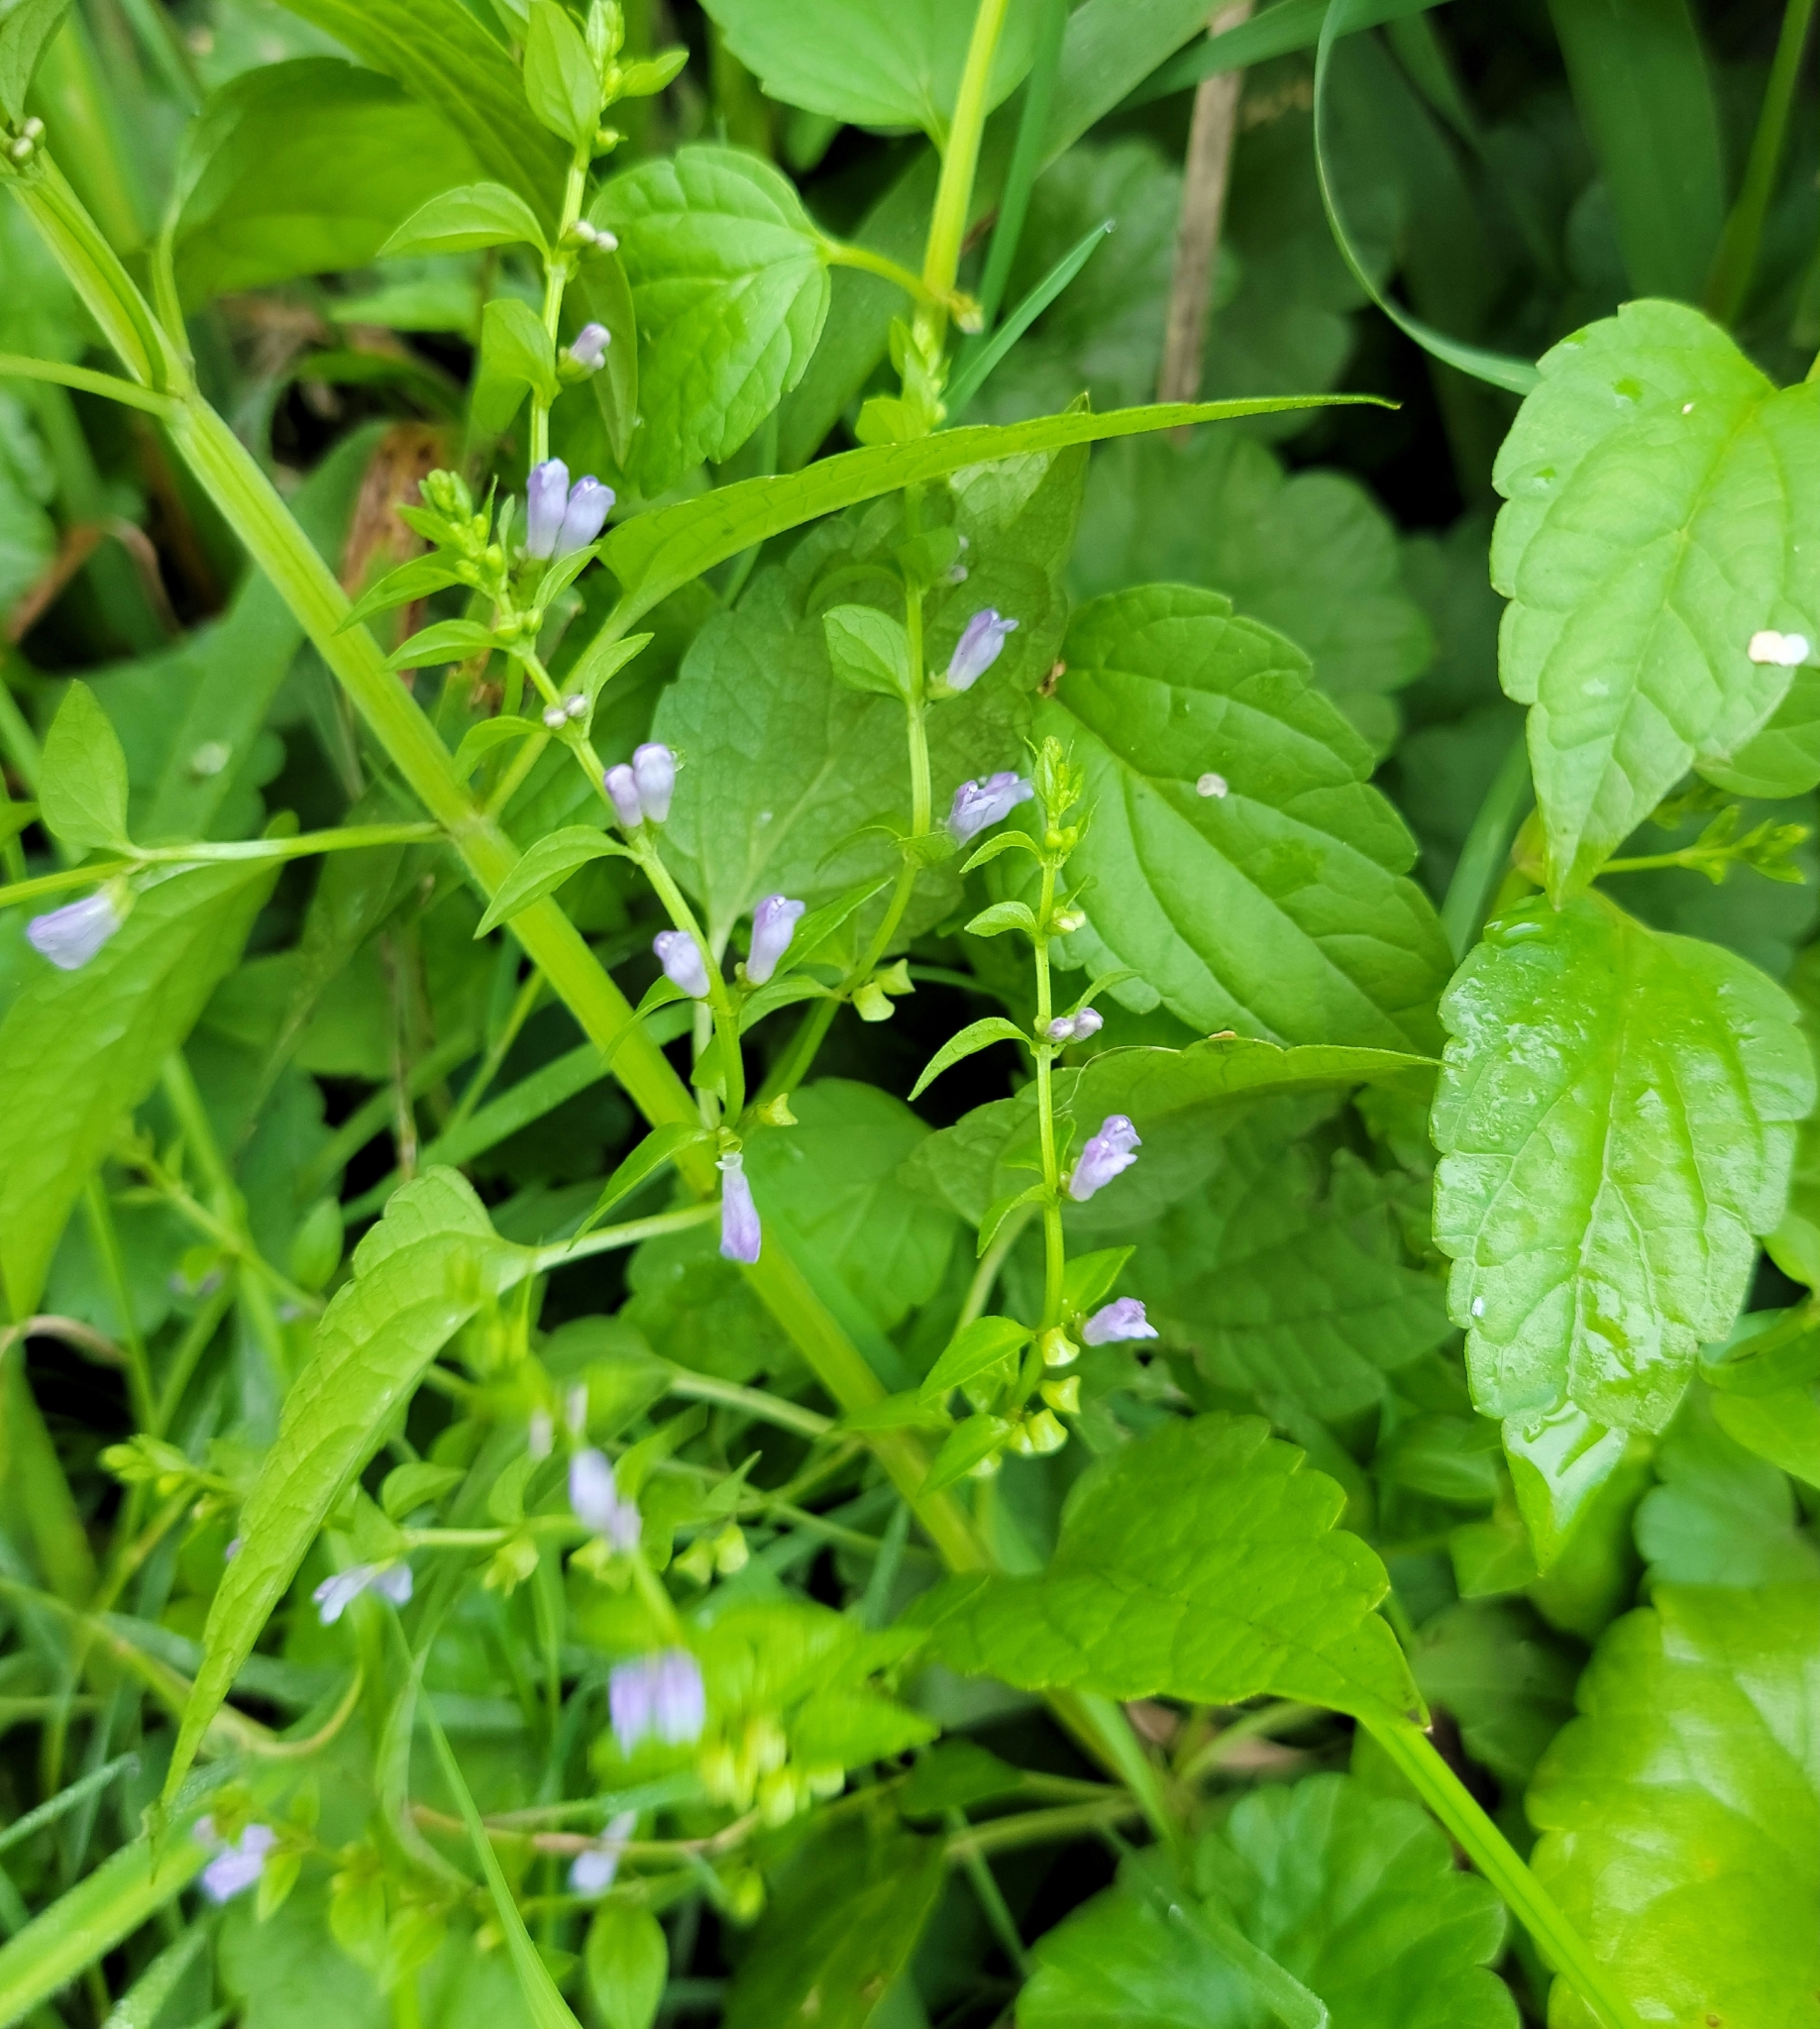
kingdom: Plantae
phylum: Tracheophyta
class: Magnoliopsida
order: Lamiales
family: Lamiaceae
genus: Scutellaria
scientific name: Scutellaria lateriflora
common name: Blue skullcap
